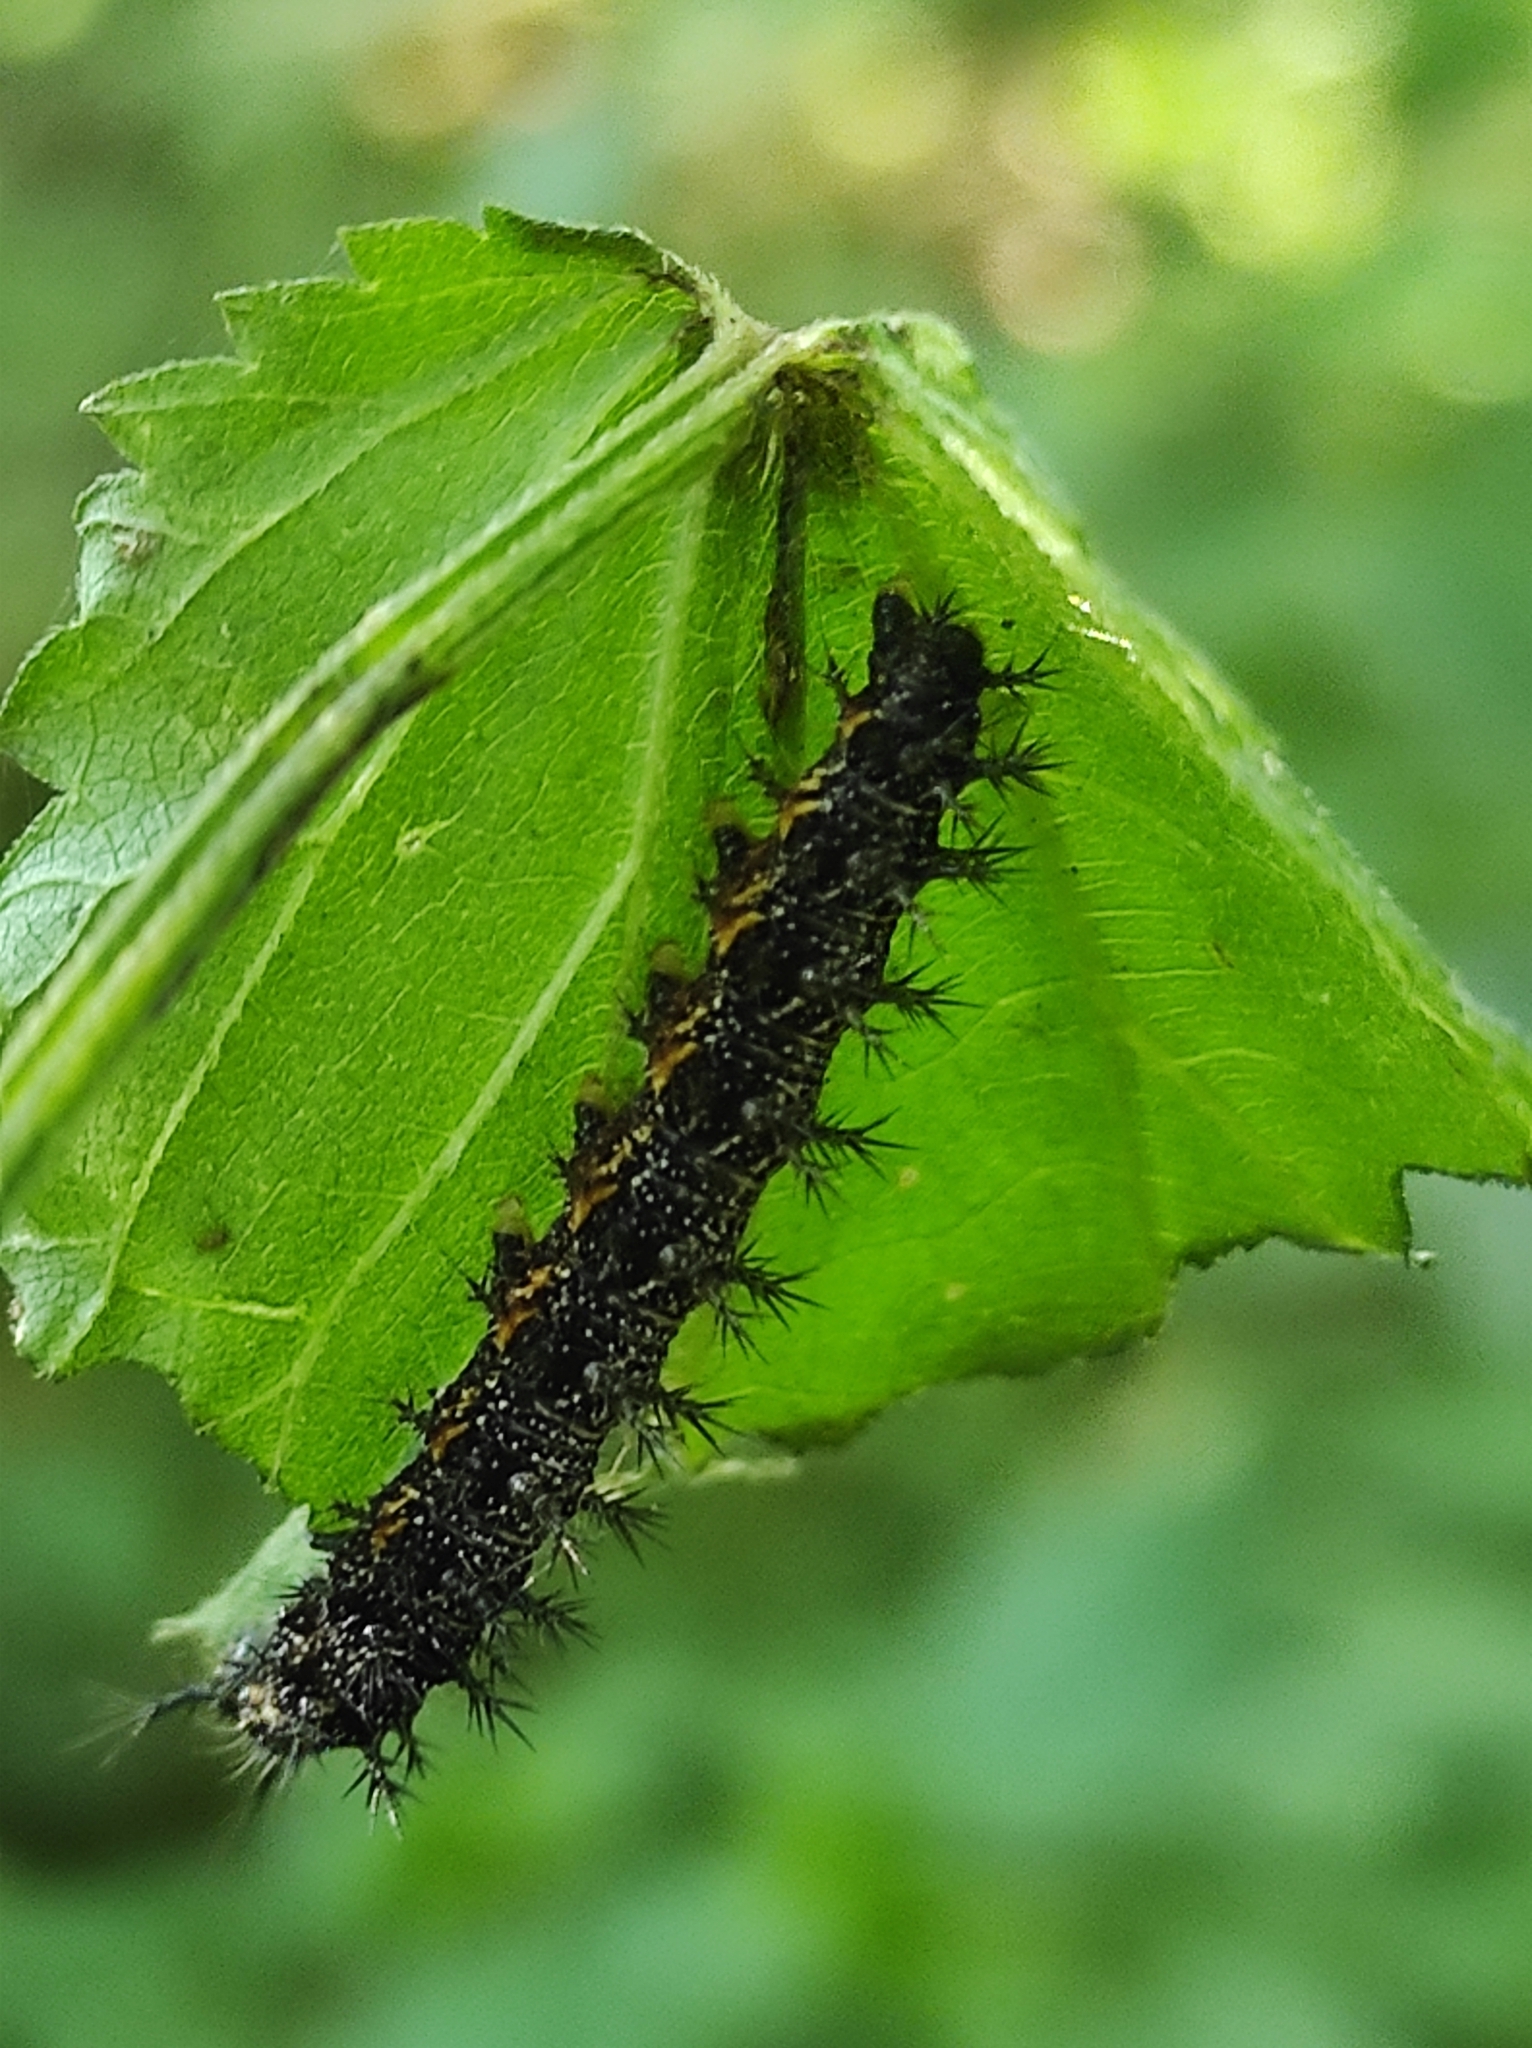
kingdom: Animalia
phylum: Arthropoda
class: Insecta
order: Lepidoptera
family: Nymphalidae
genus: Araschnia
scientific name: Araschnia levana
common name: Map butterfly
